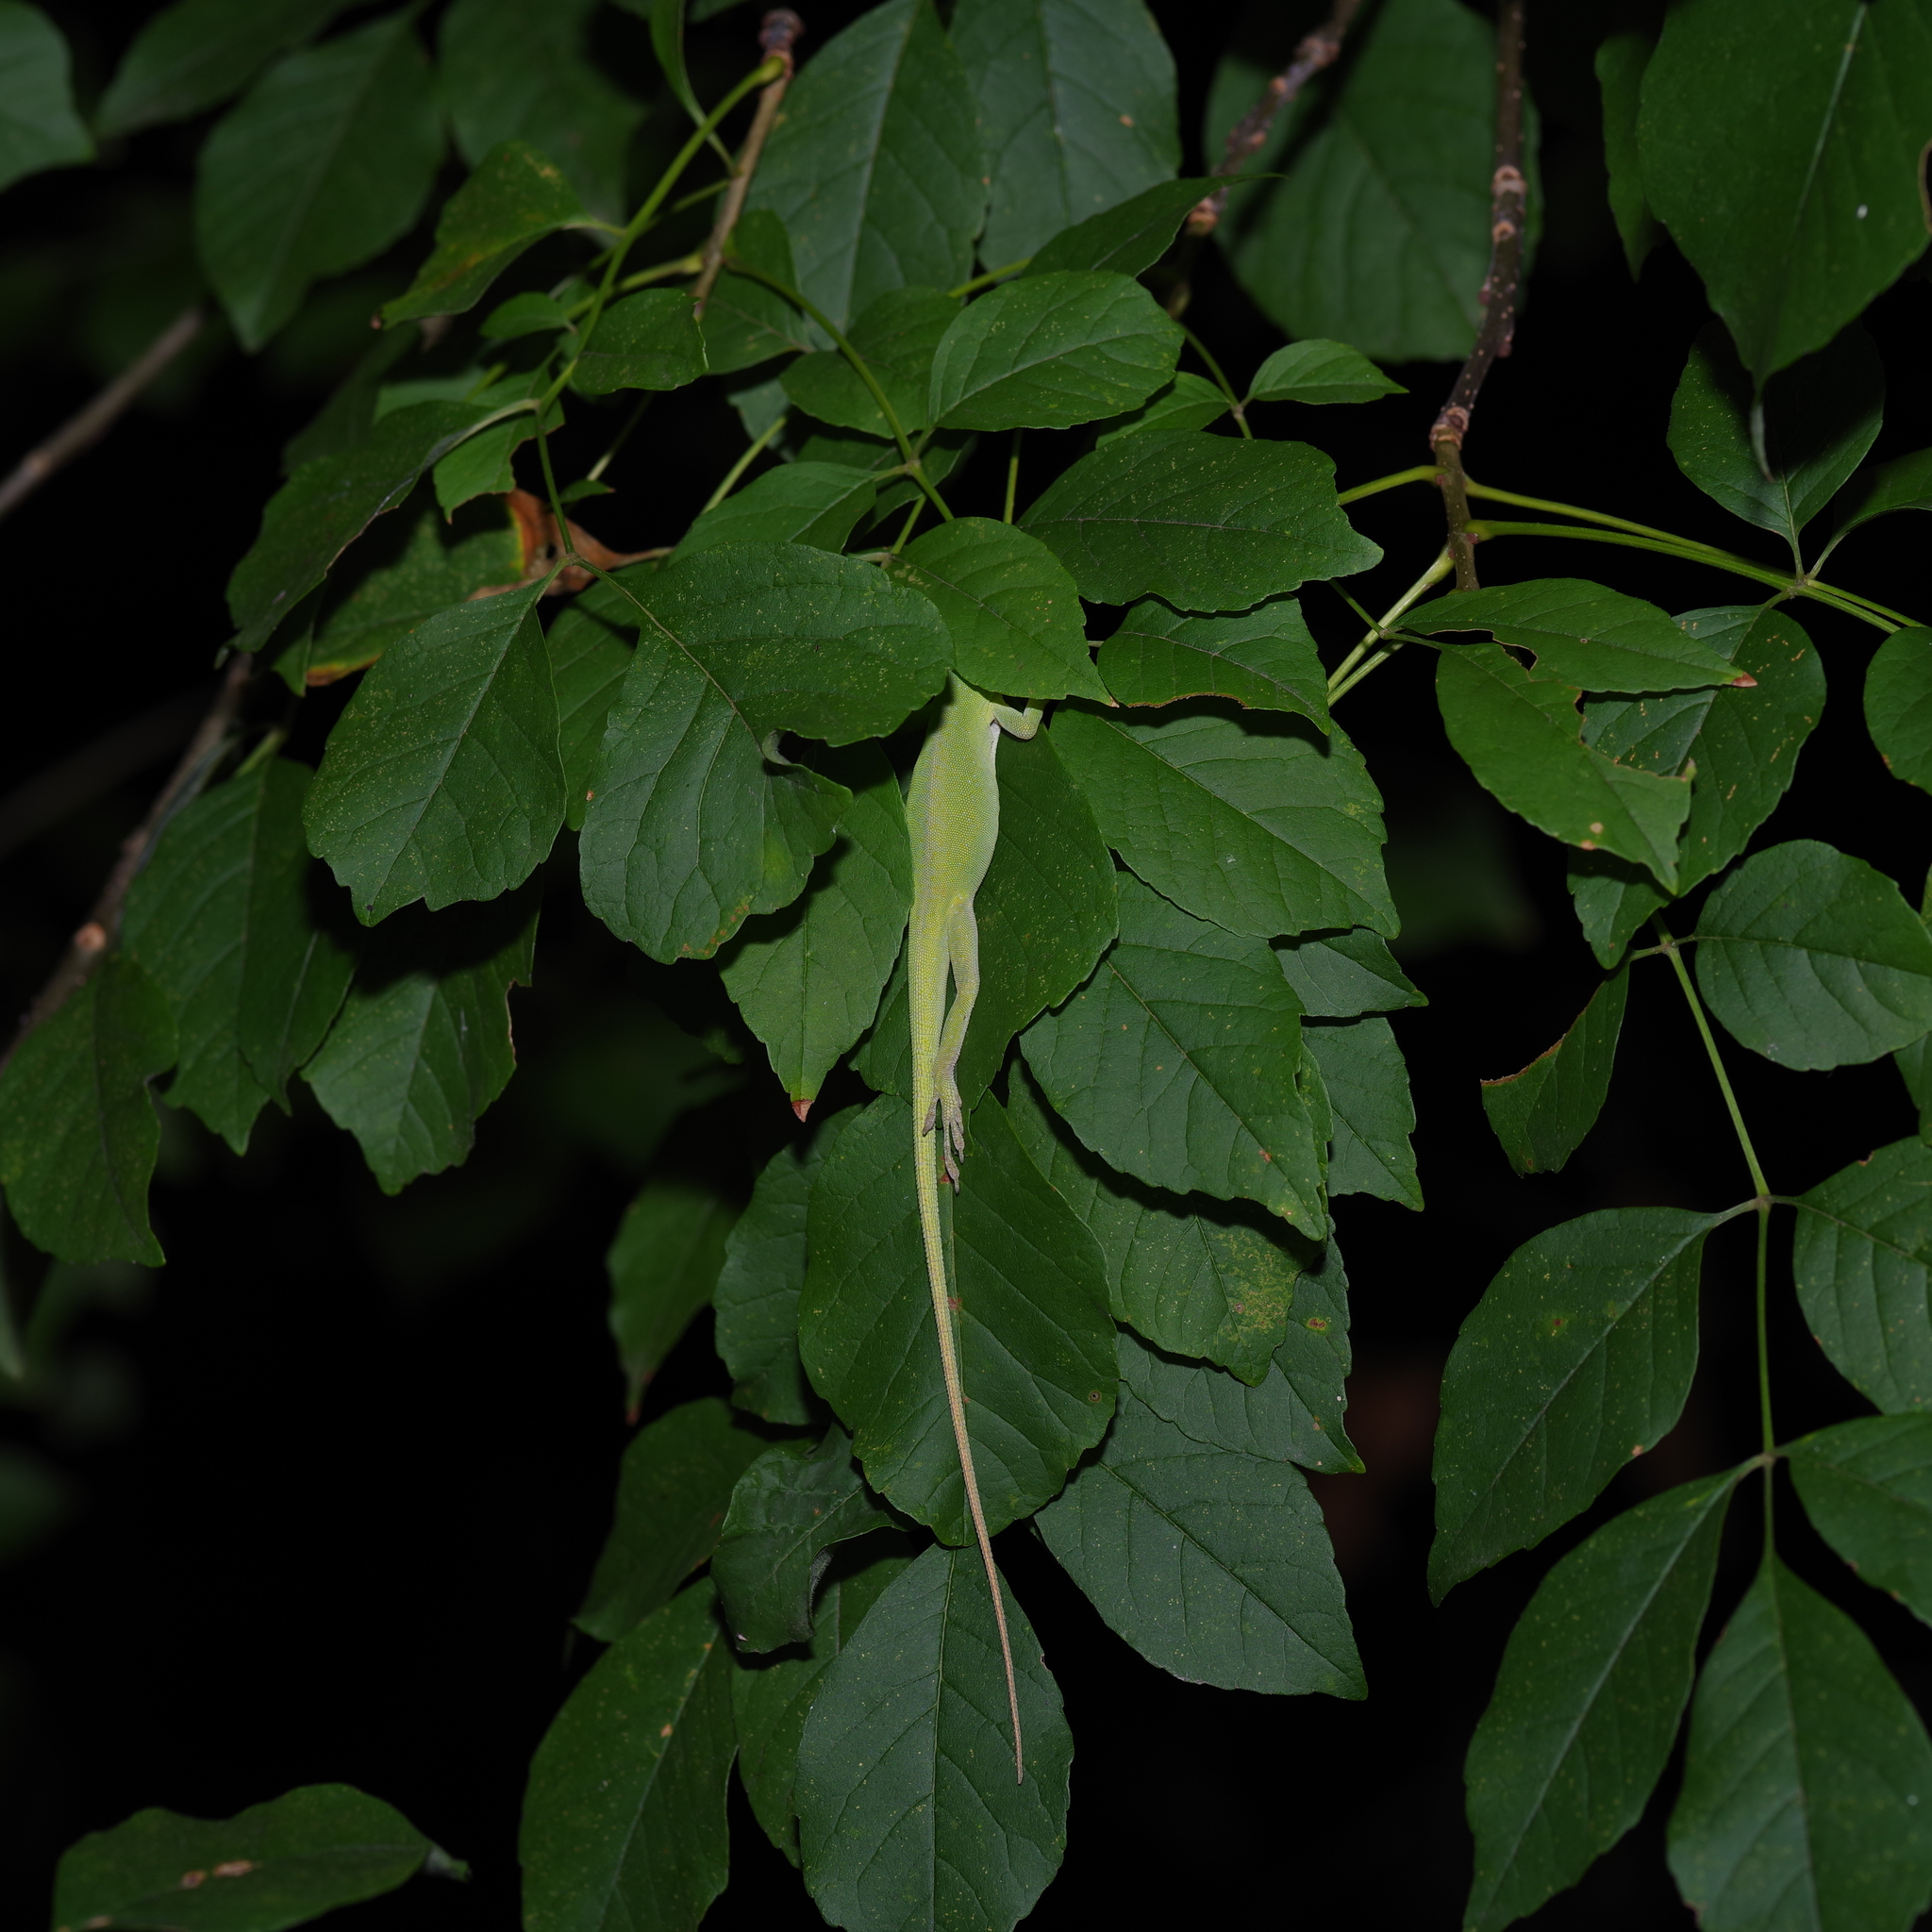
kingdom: Animalia
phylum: Chordata
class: Squamata
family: Dactyloidae
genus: Anolis
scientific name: Anolis carolinensis
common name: Green anole
